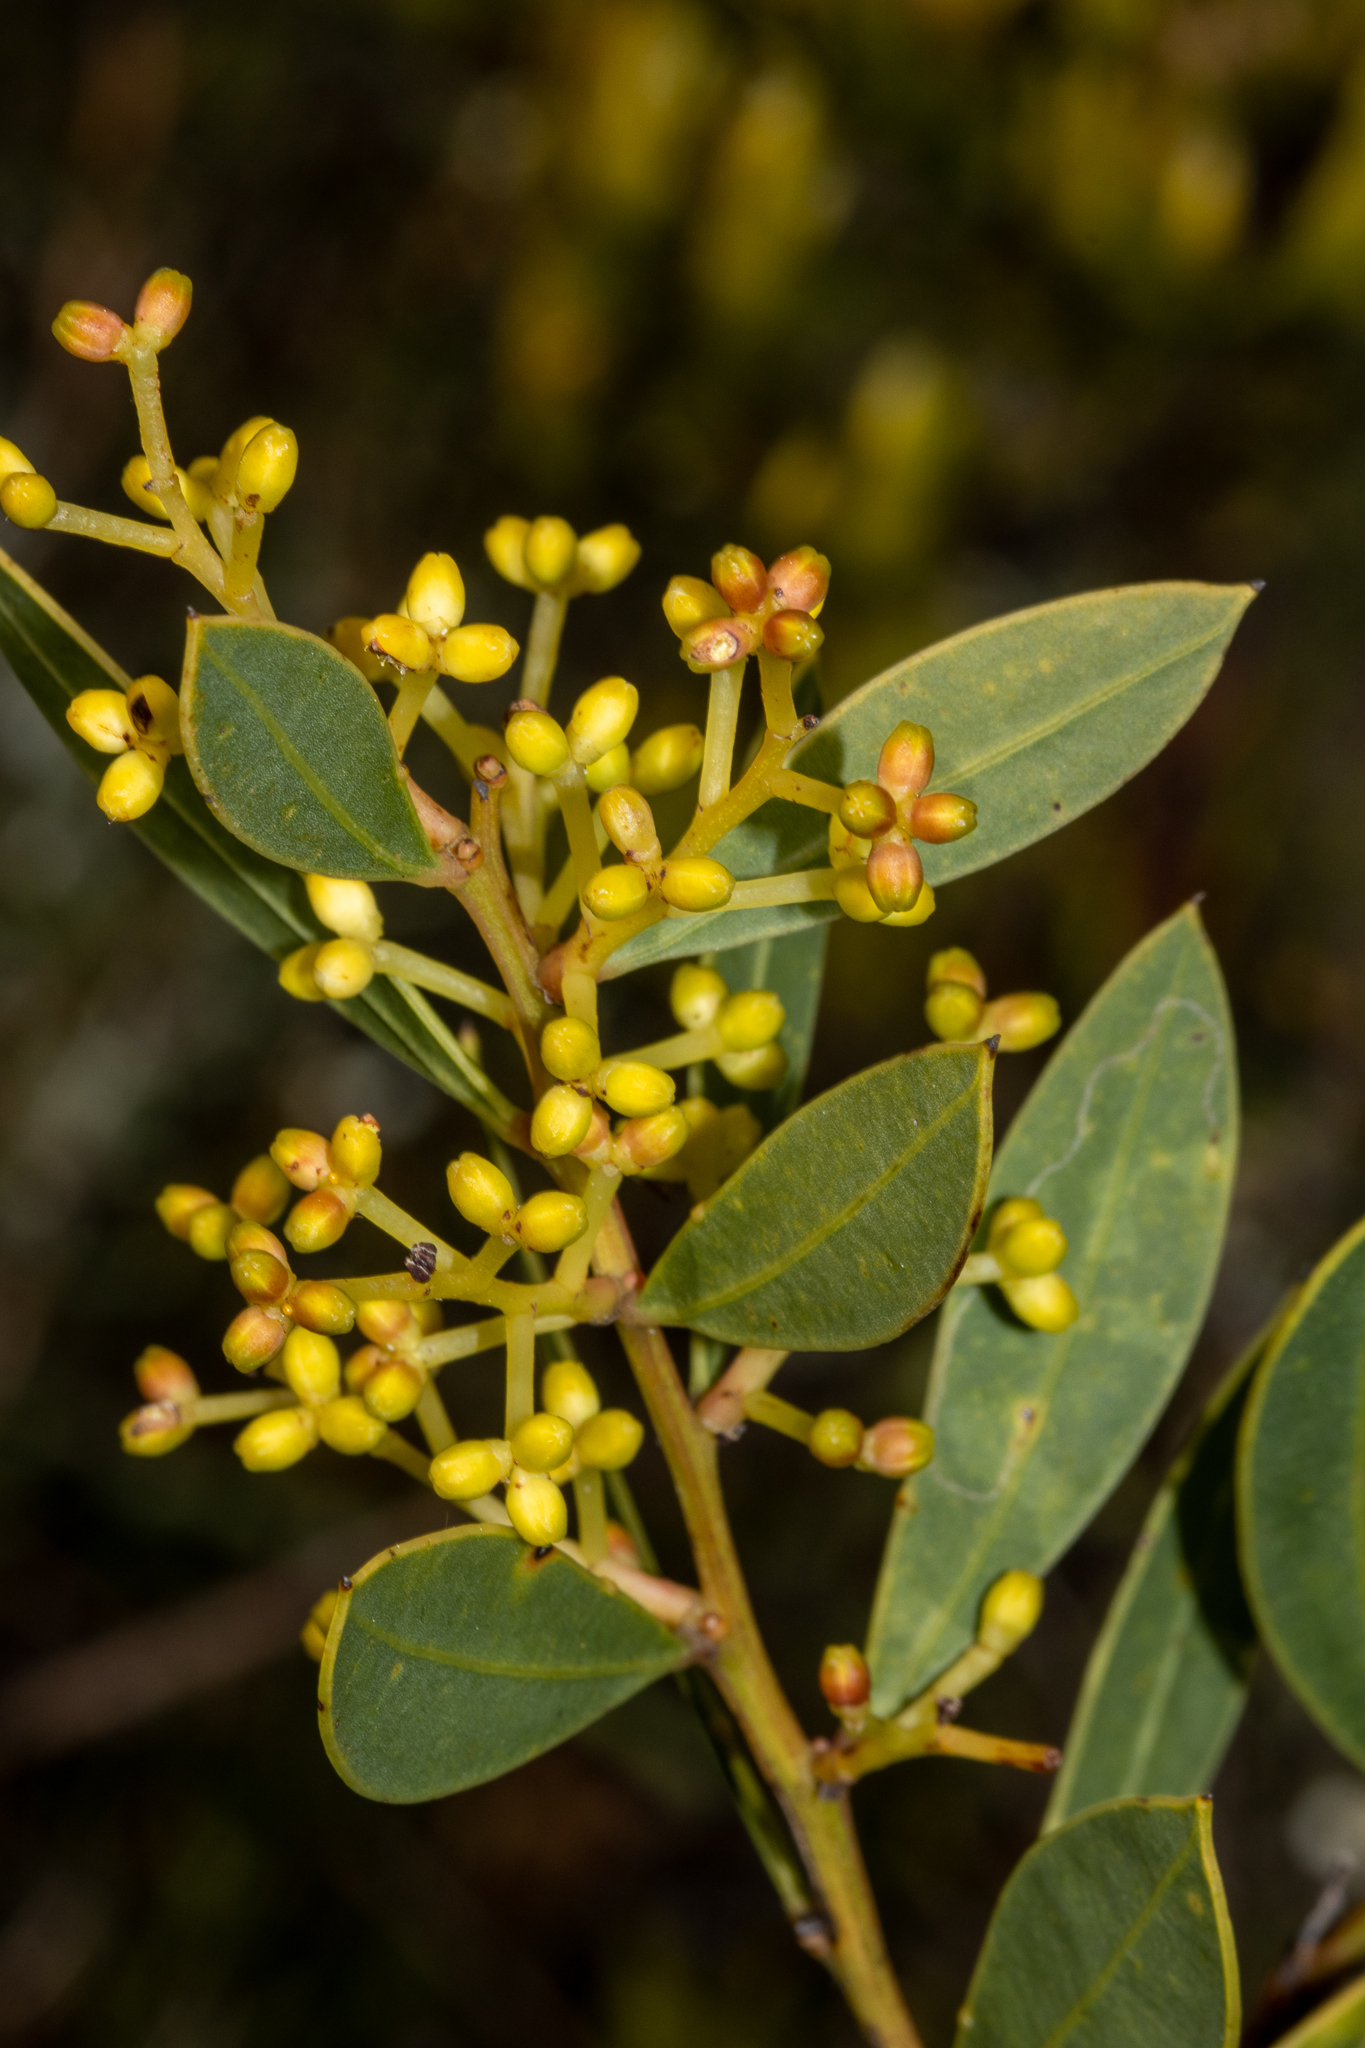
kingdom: Plantae
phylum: Tracheophyta
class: Magnoliopsida
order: Fabales
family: Fabaceae
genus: Acacia
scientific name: Acacia myrtifolia
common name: Myrtle wattle
